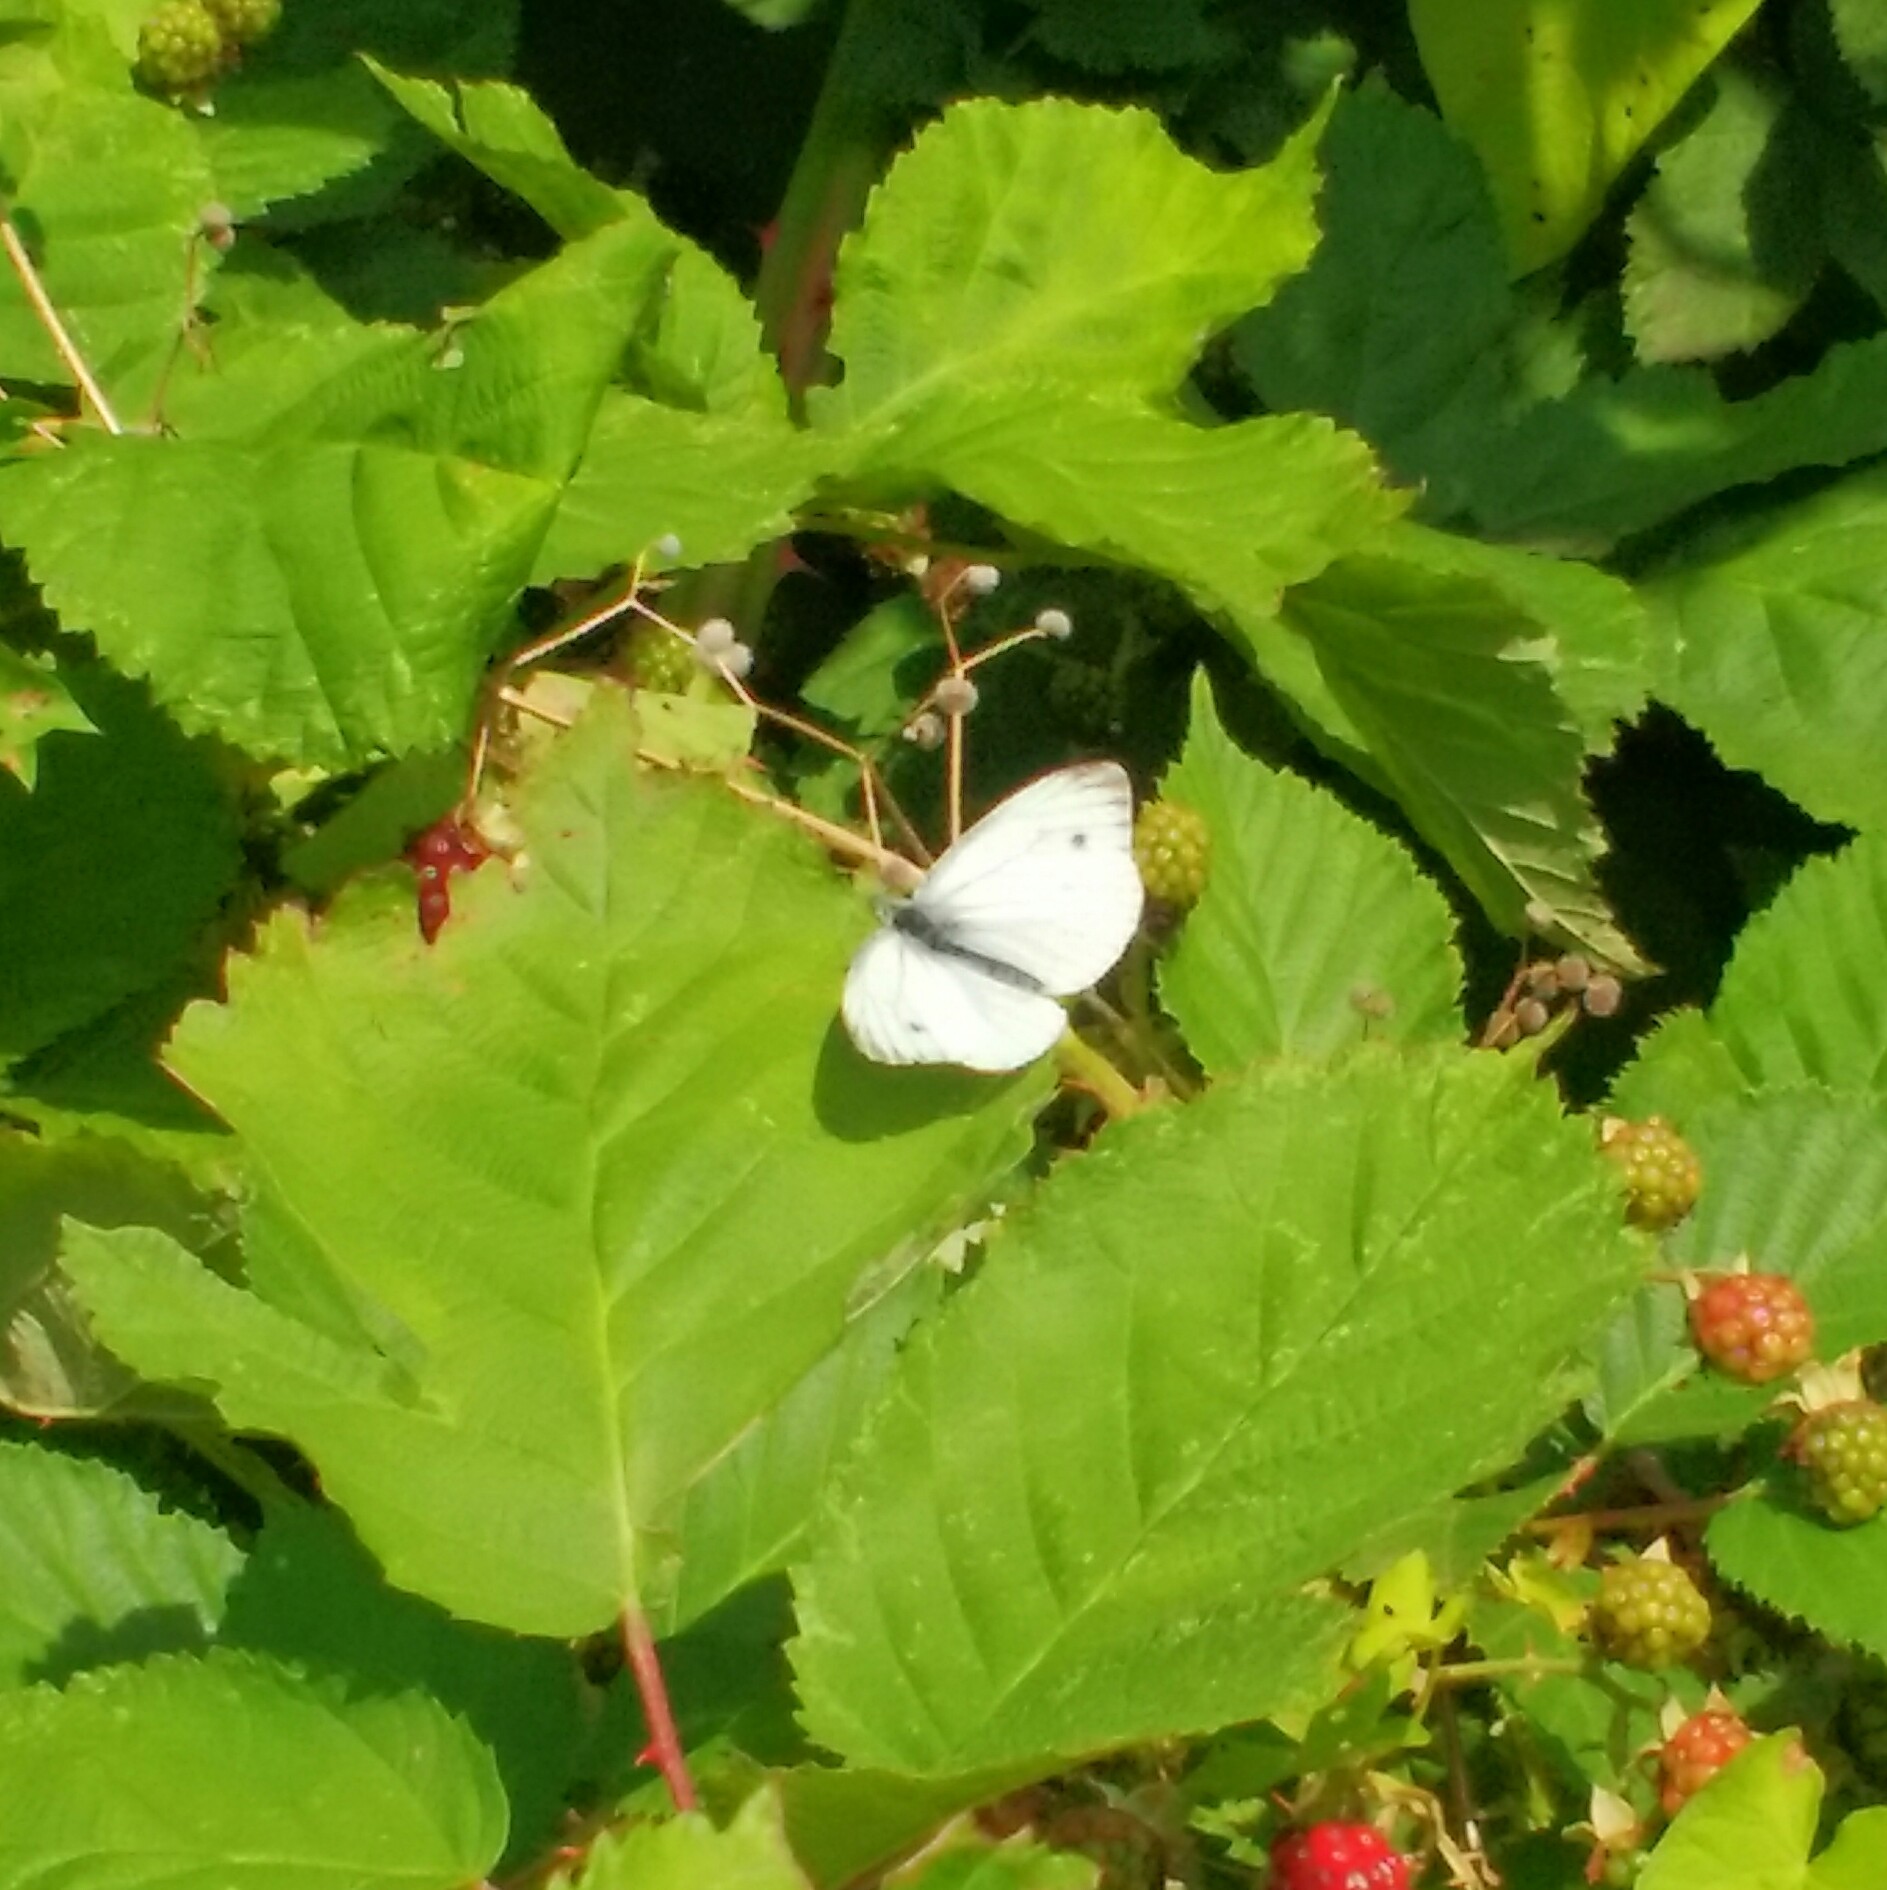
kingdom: Animalia
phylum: Arthropoda
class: Insecta
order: Lepidoptera
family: Pieridae
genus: Pieris
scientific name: Pieris napi
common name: Green-veined white
